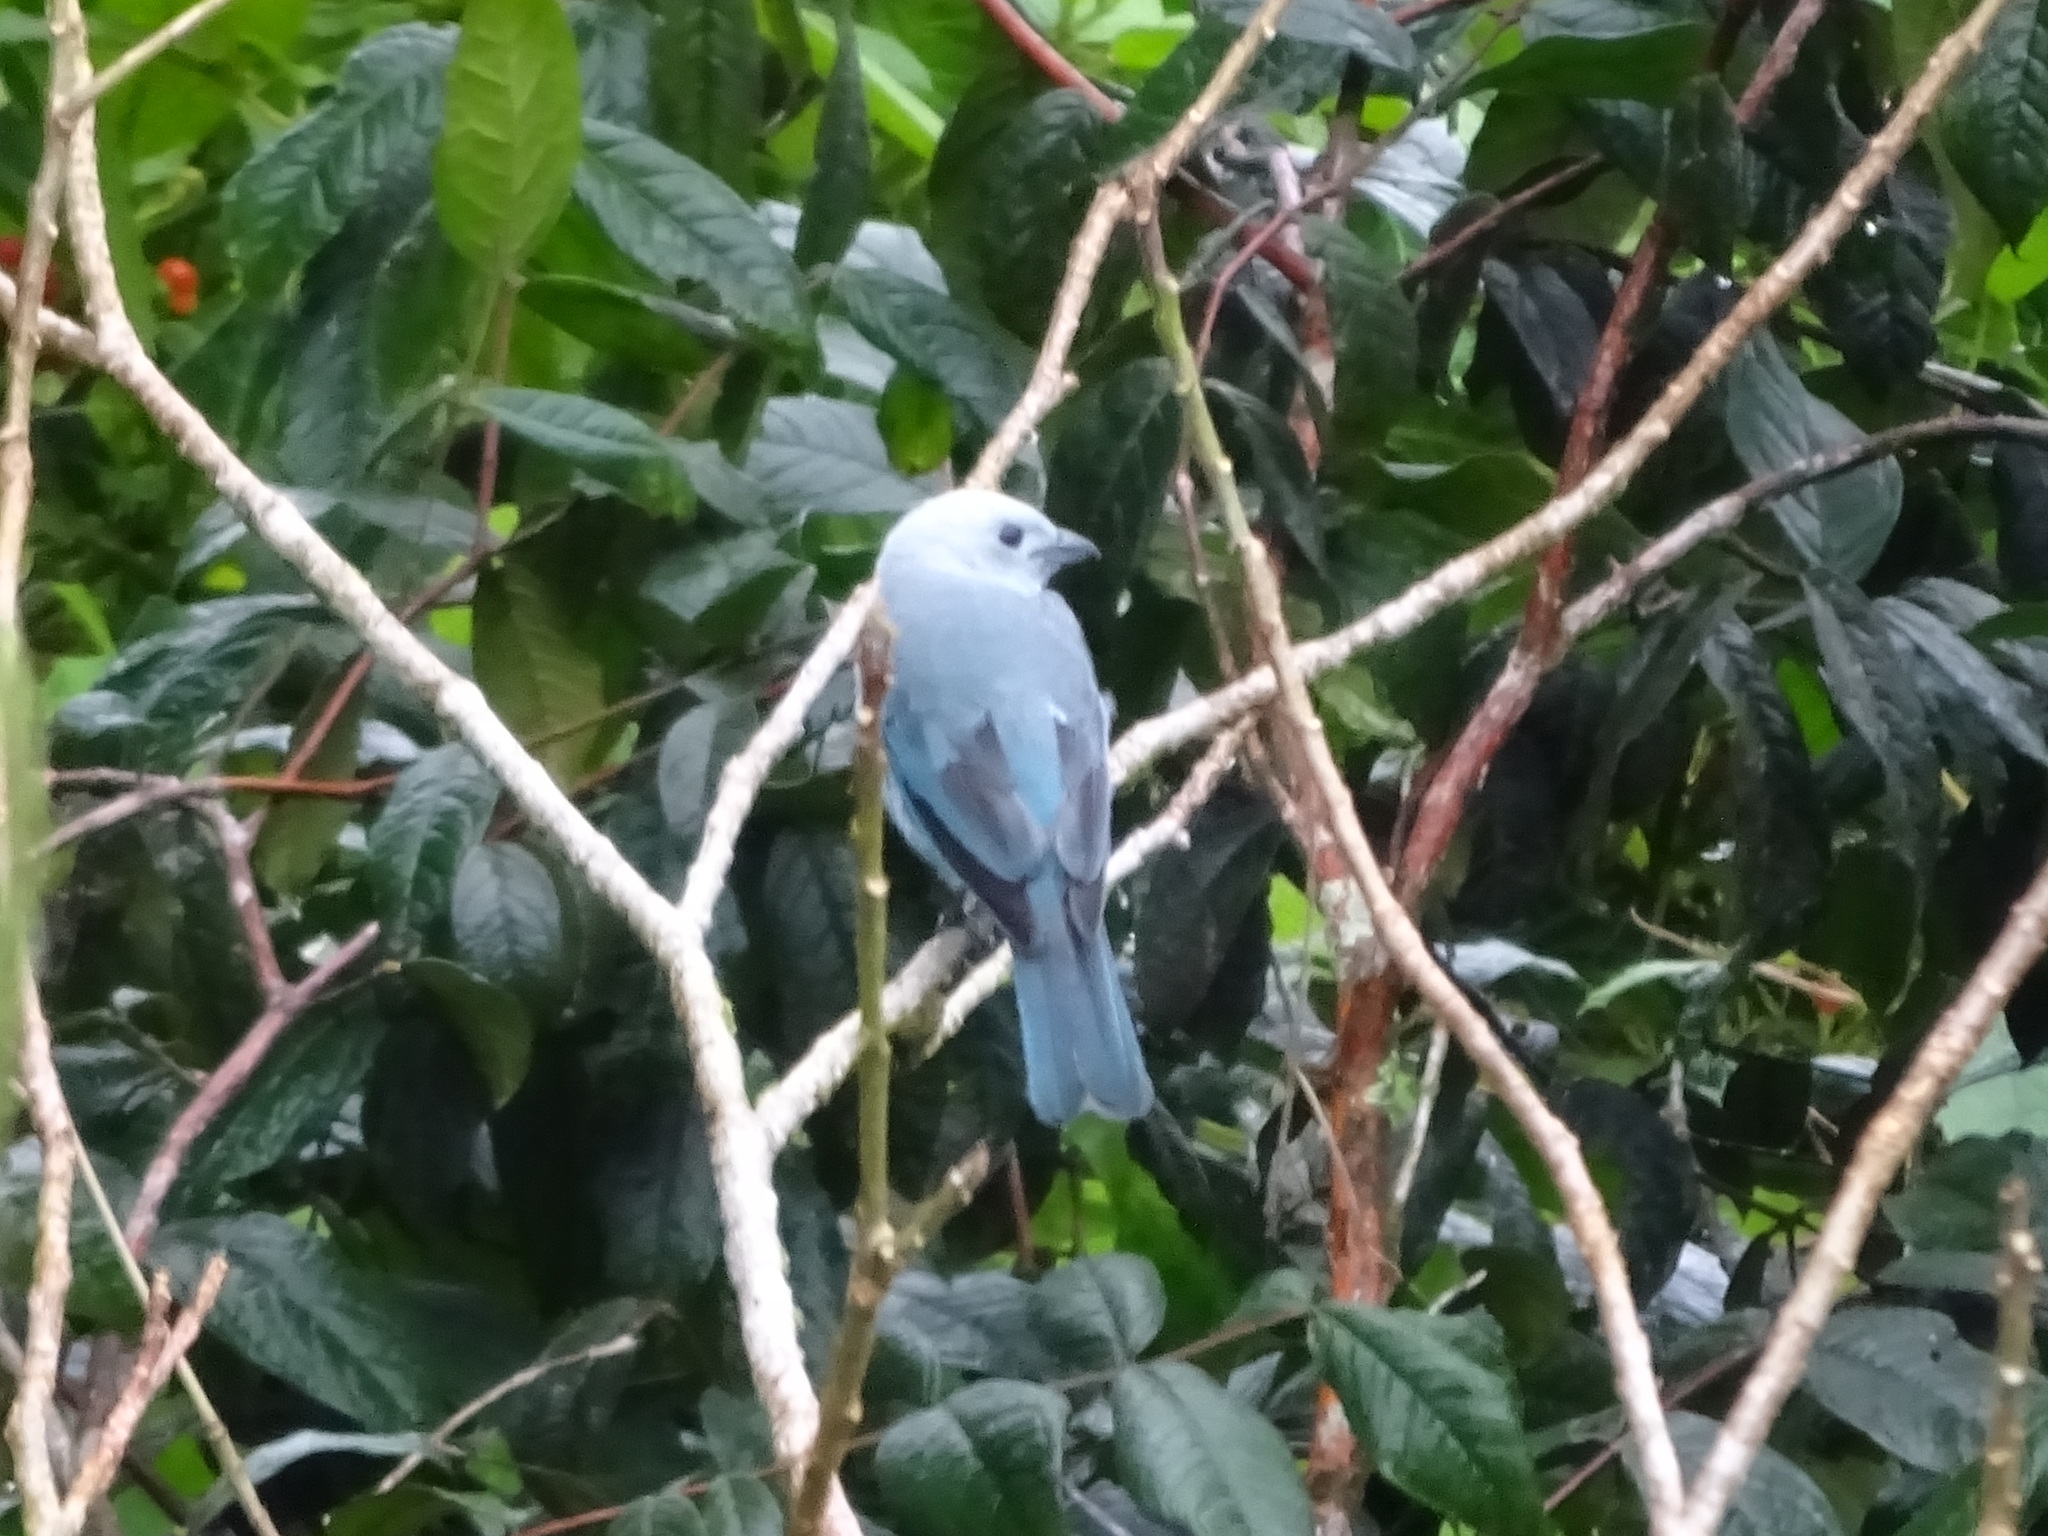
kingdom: Animalia
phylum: Chordata
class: Aves
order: Passeriformes
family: Thraupidae
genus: Thraupis
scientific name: Thraupis episcopus
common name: Blue-grey tanager
